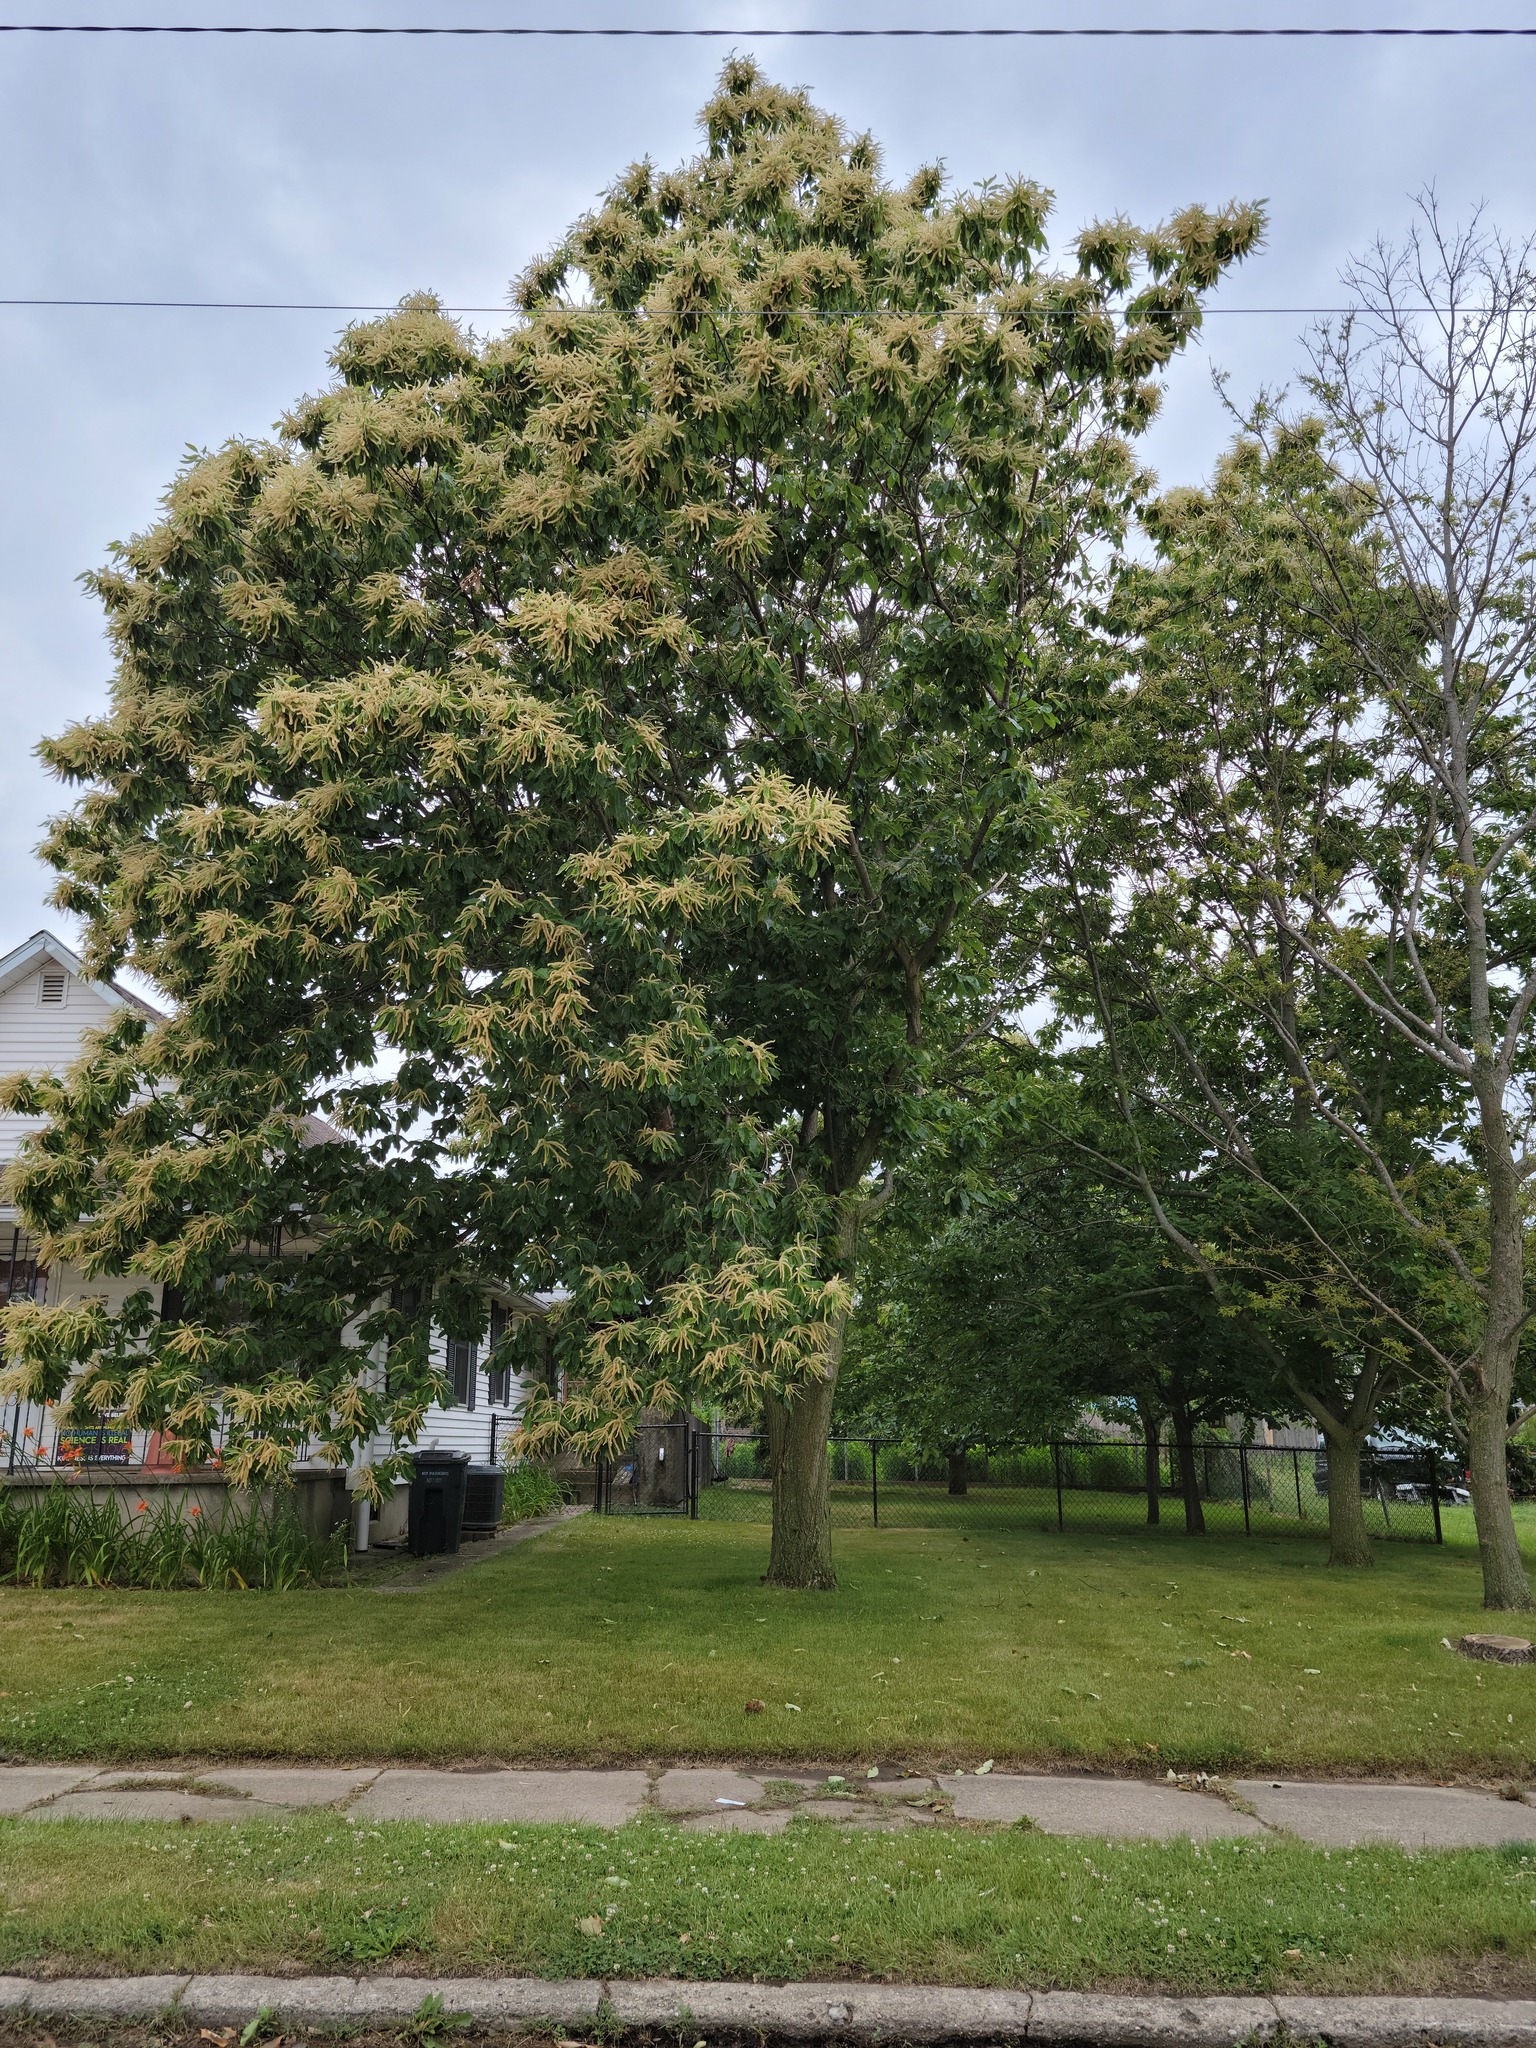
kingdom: Plantae
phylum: Tracheophyta
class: Magnoliopsida
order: Fagales
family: Fagaceae
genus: Castanea
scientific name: Castanea mollissima
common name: Chinese chestnut
